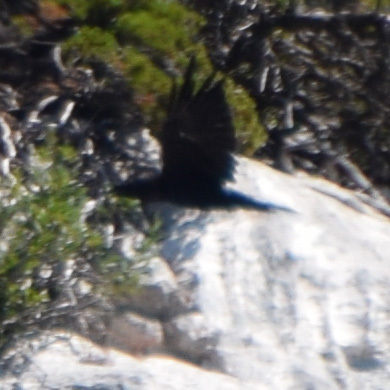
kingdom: Animalia
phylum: Chordata
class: Aves
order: Passeriformes
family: Corvidae
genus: Corvus
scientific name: Corvus corax
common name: Common raven
